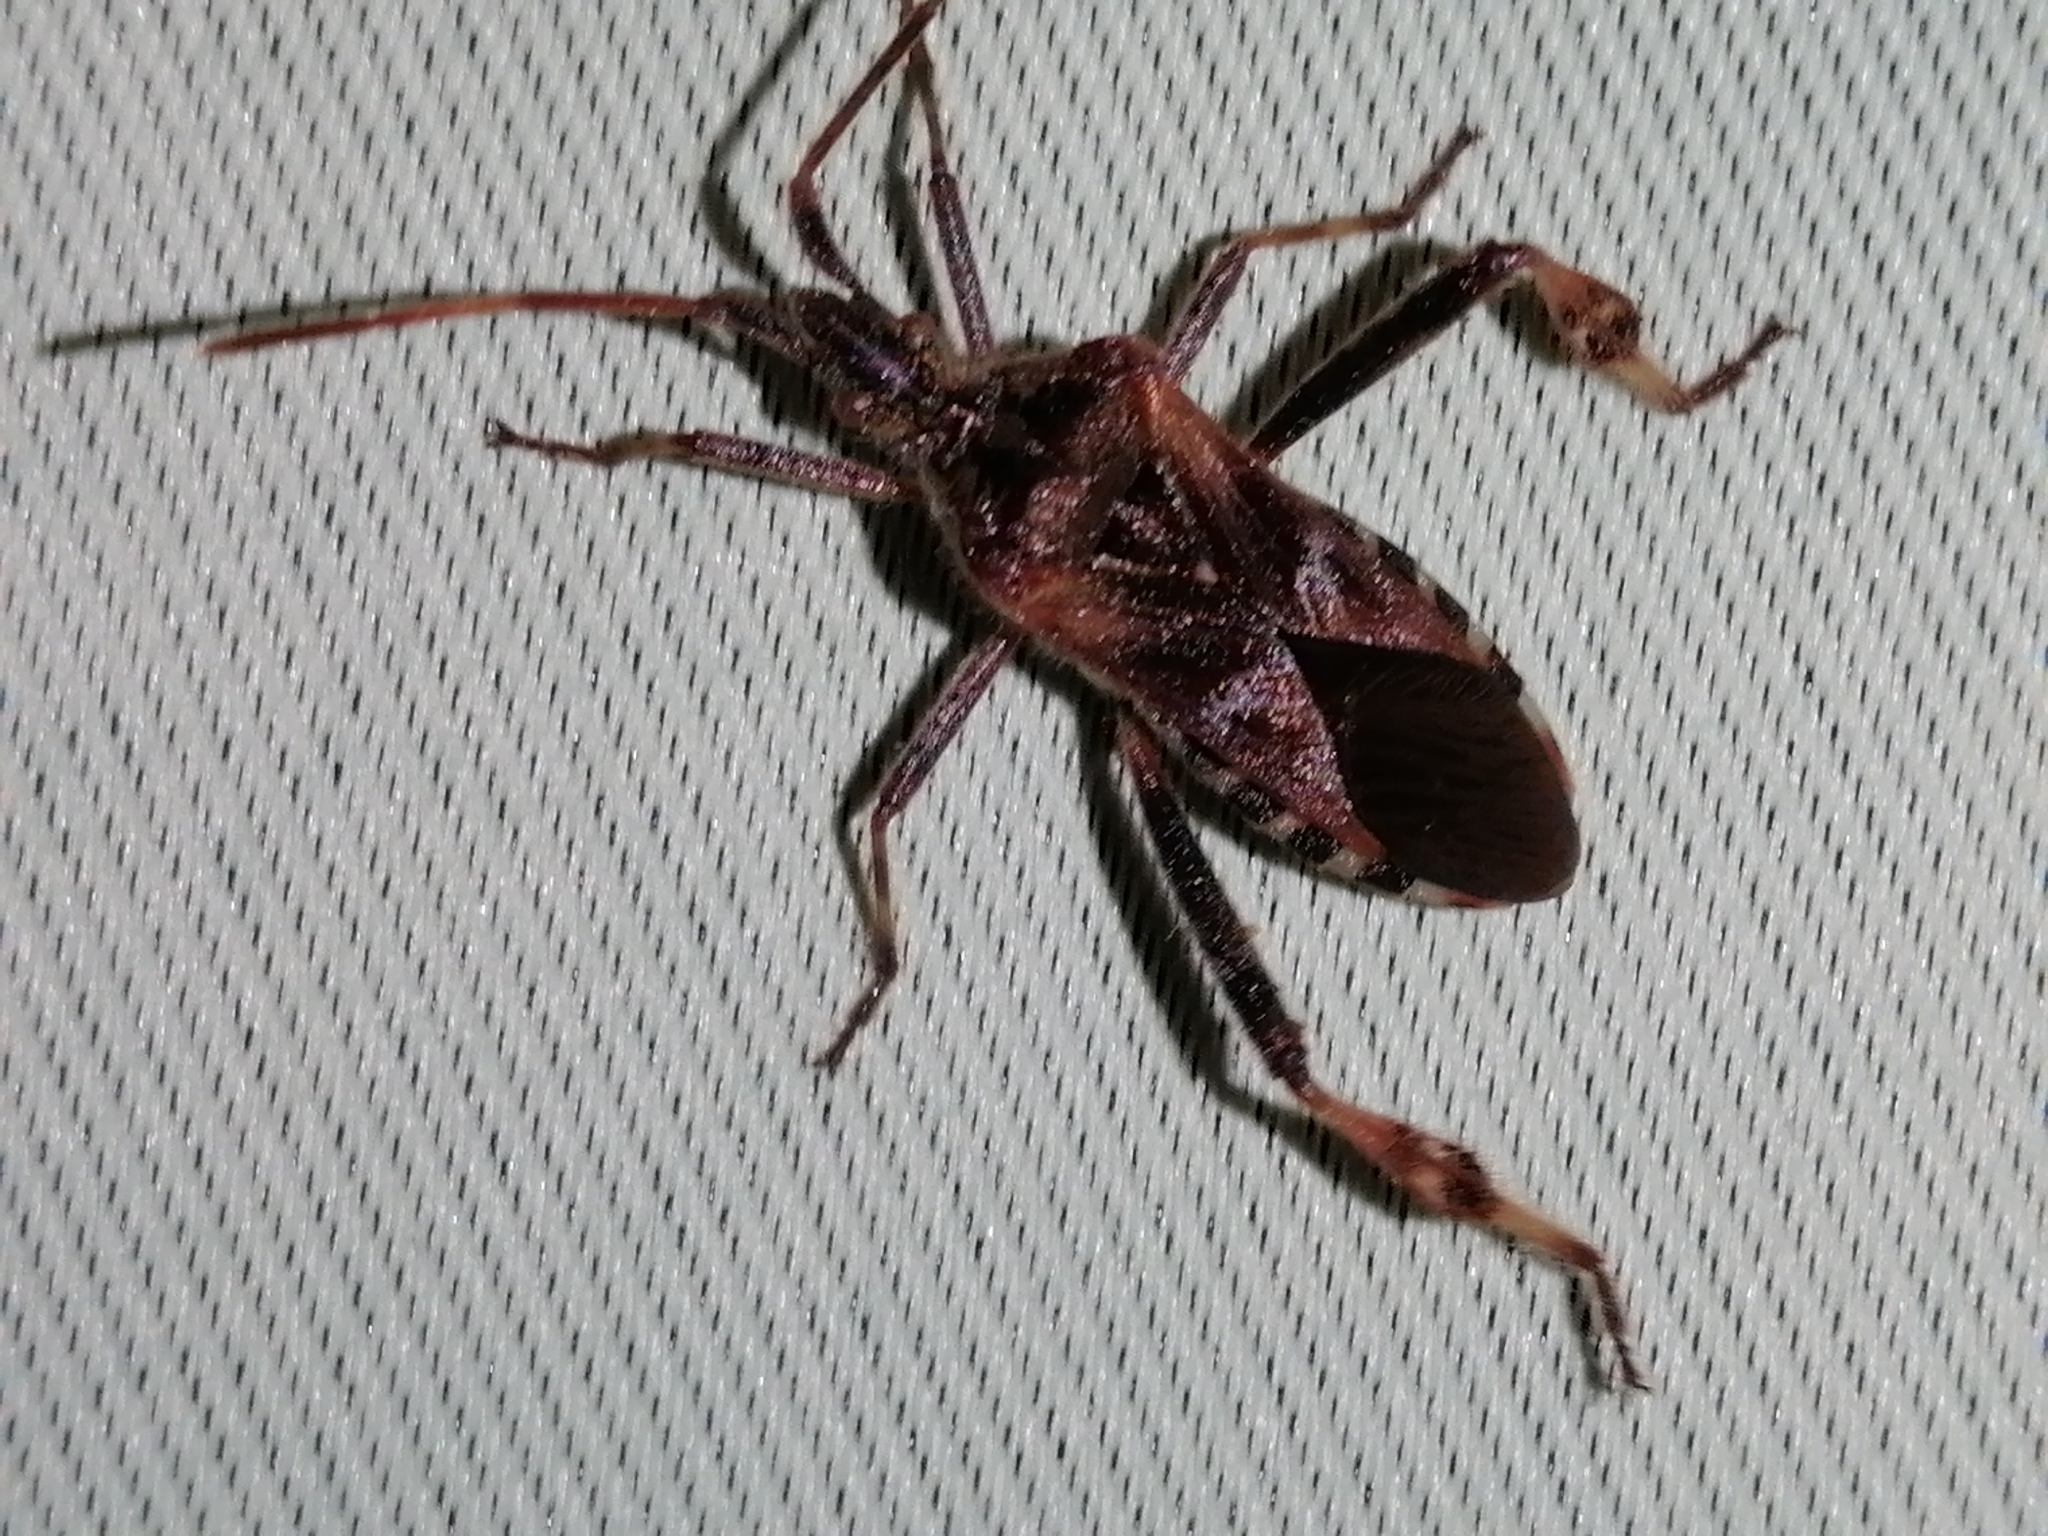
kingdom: Animalia
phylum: Arthropoda
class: Insecta
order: Hemiptera
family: Coreidae
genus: Leptoglossus
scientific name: Leptoglossus occidentalis
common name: Western conifer-seed bug
